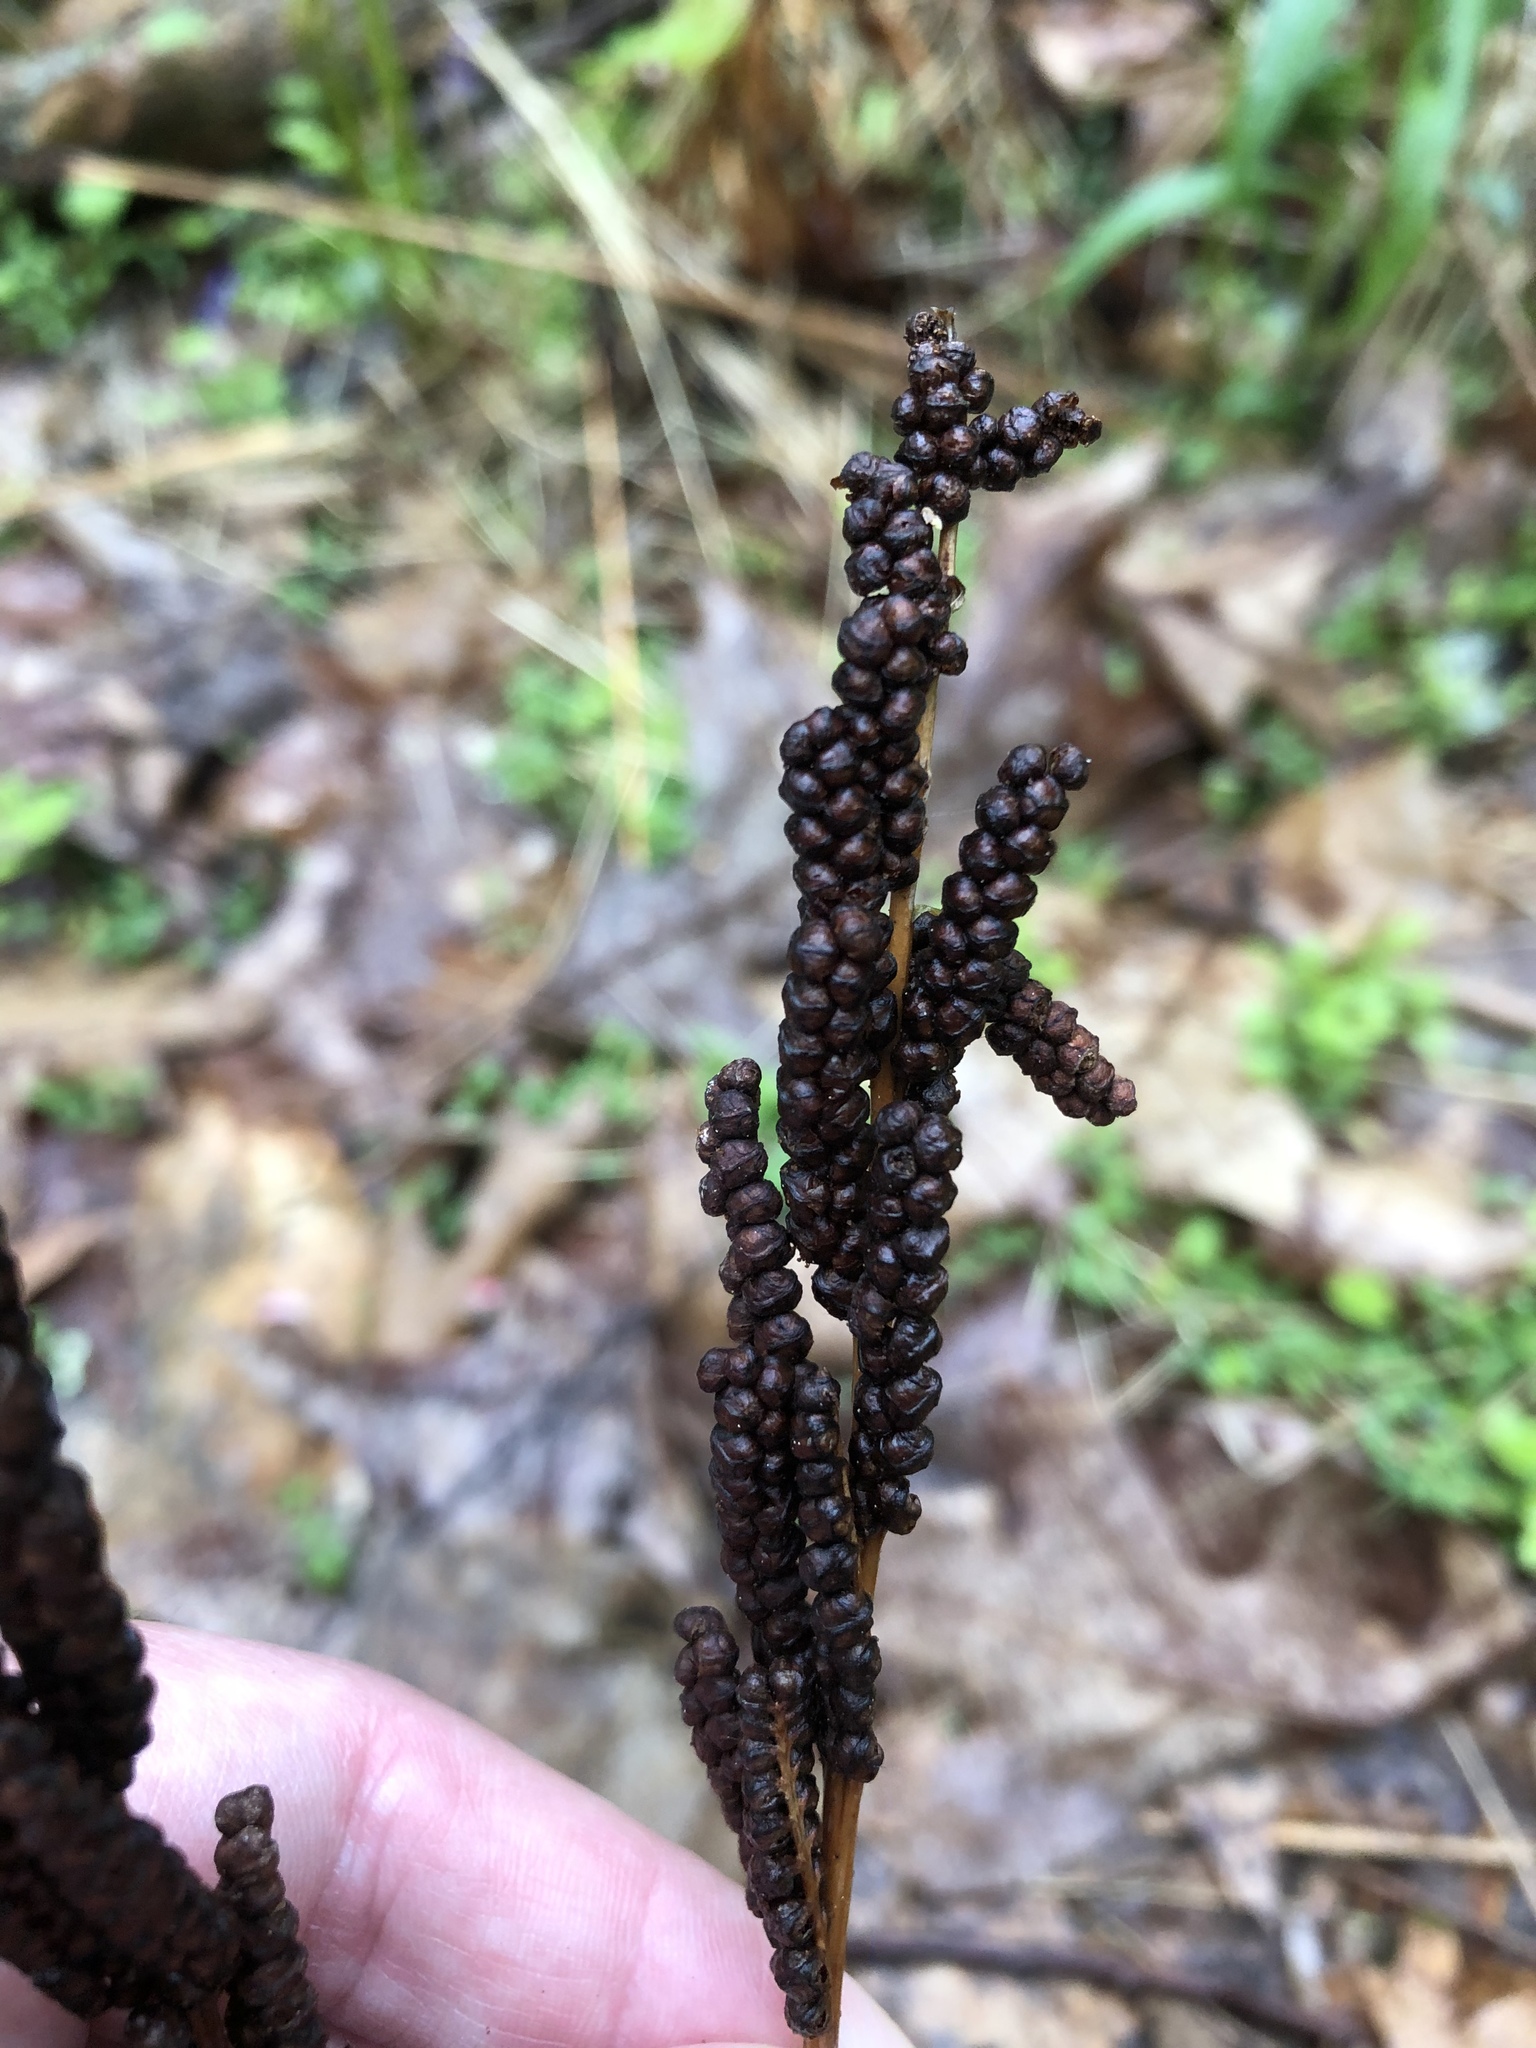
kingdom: Plantae
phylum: Tracheophyta
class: Polypodiopsida
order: Polypodiales
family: Onocleaceae
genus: Onoclea
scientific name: Onoclea sensibilis
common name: Sensitive fern
